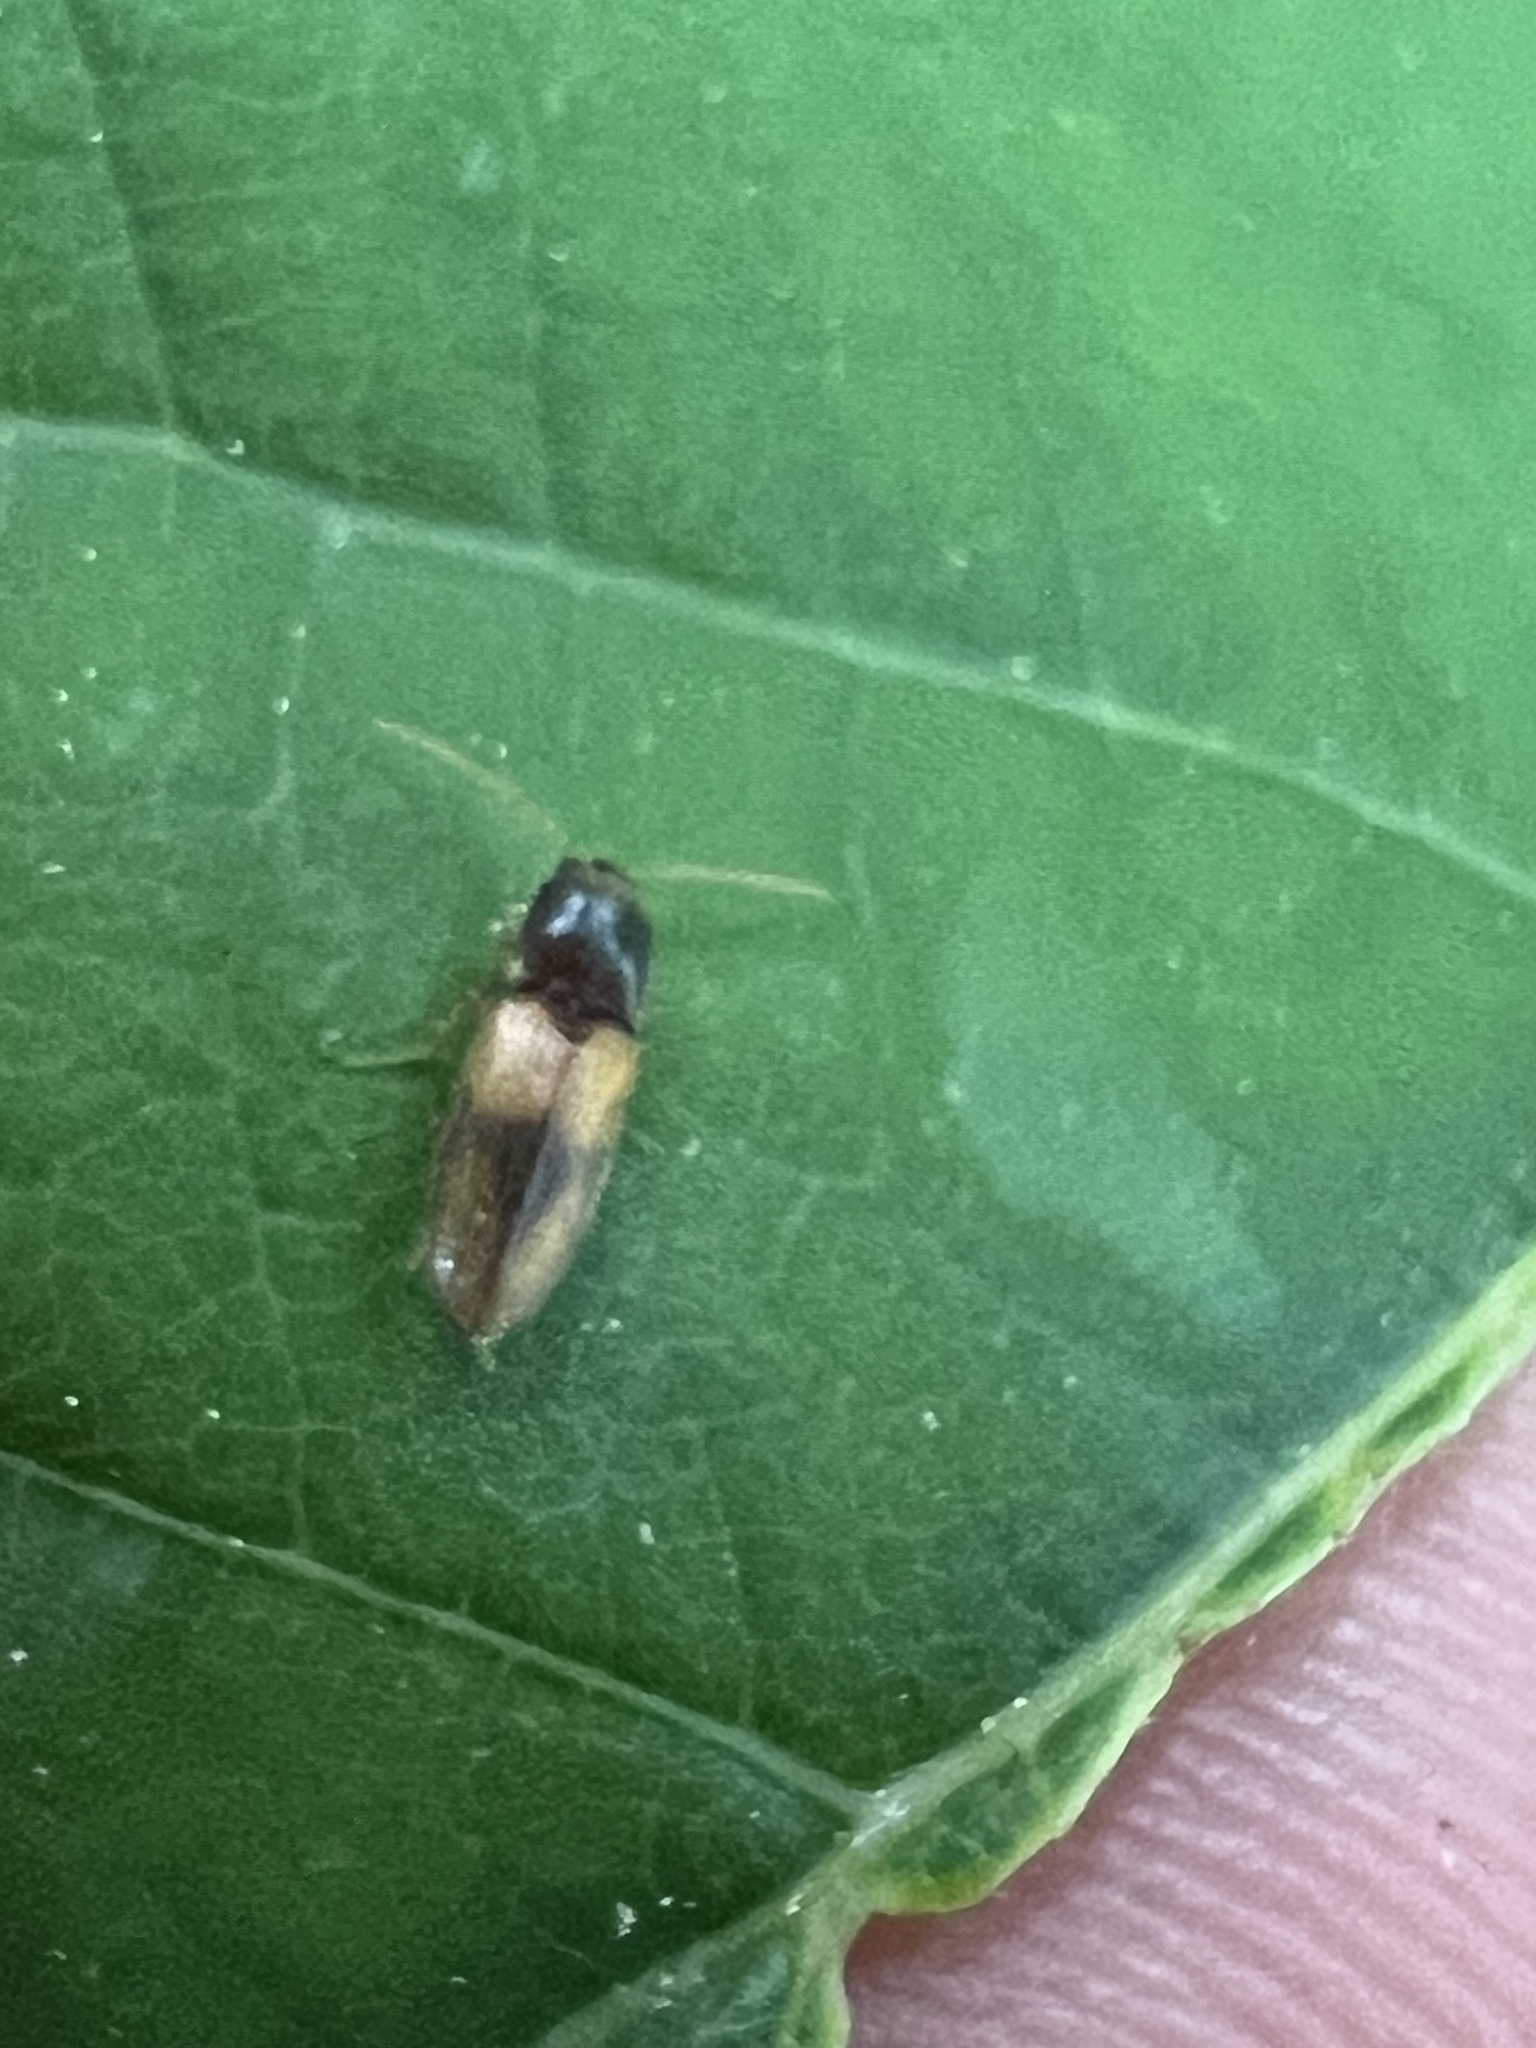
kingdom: Animalia
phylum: Arthropoda
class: Insecta
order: Coleoptera
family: Elateridae
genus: Horistonotus
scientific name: Horistonotus curiatus
